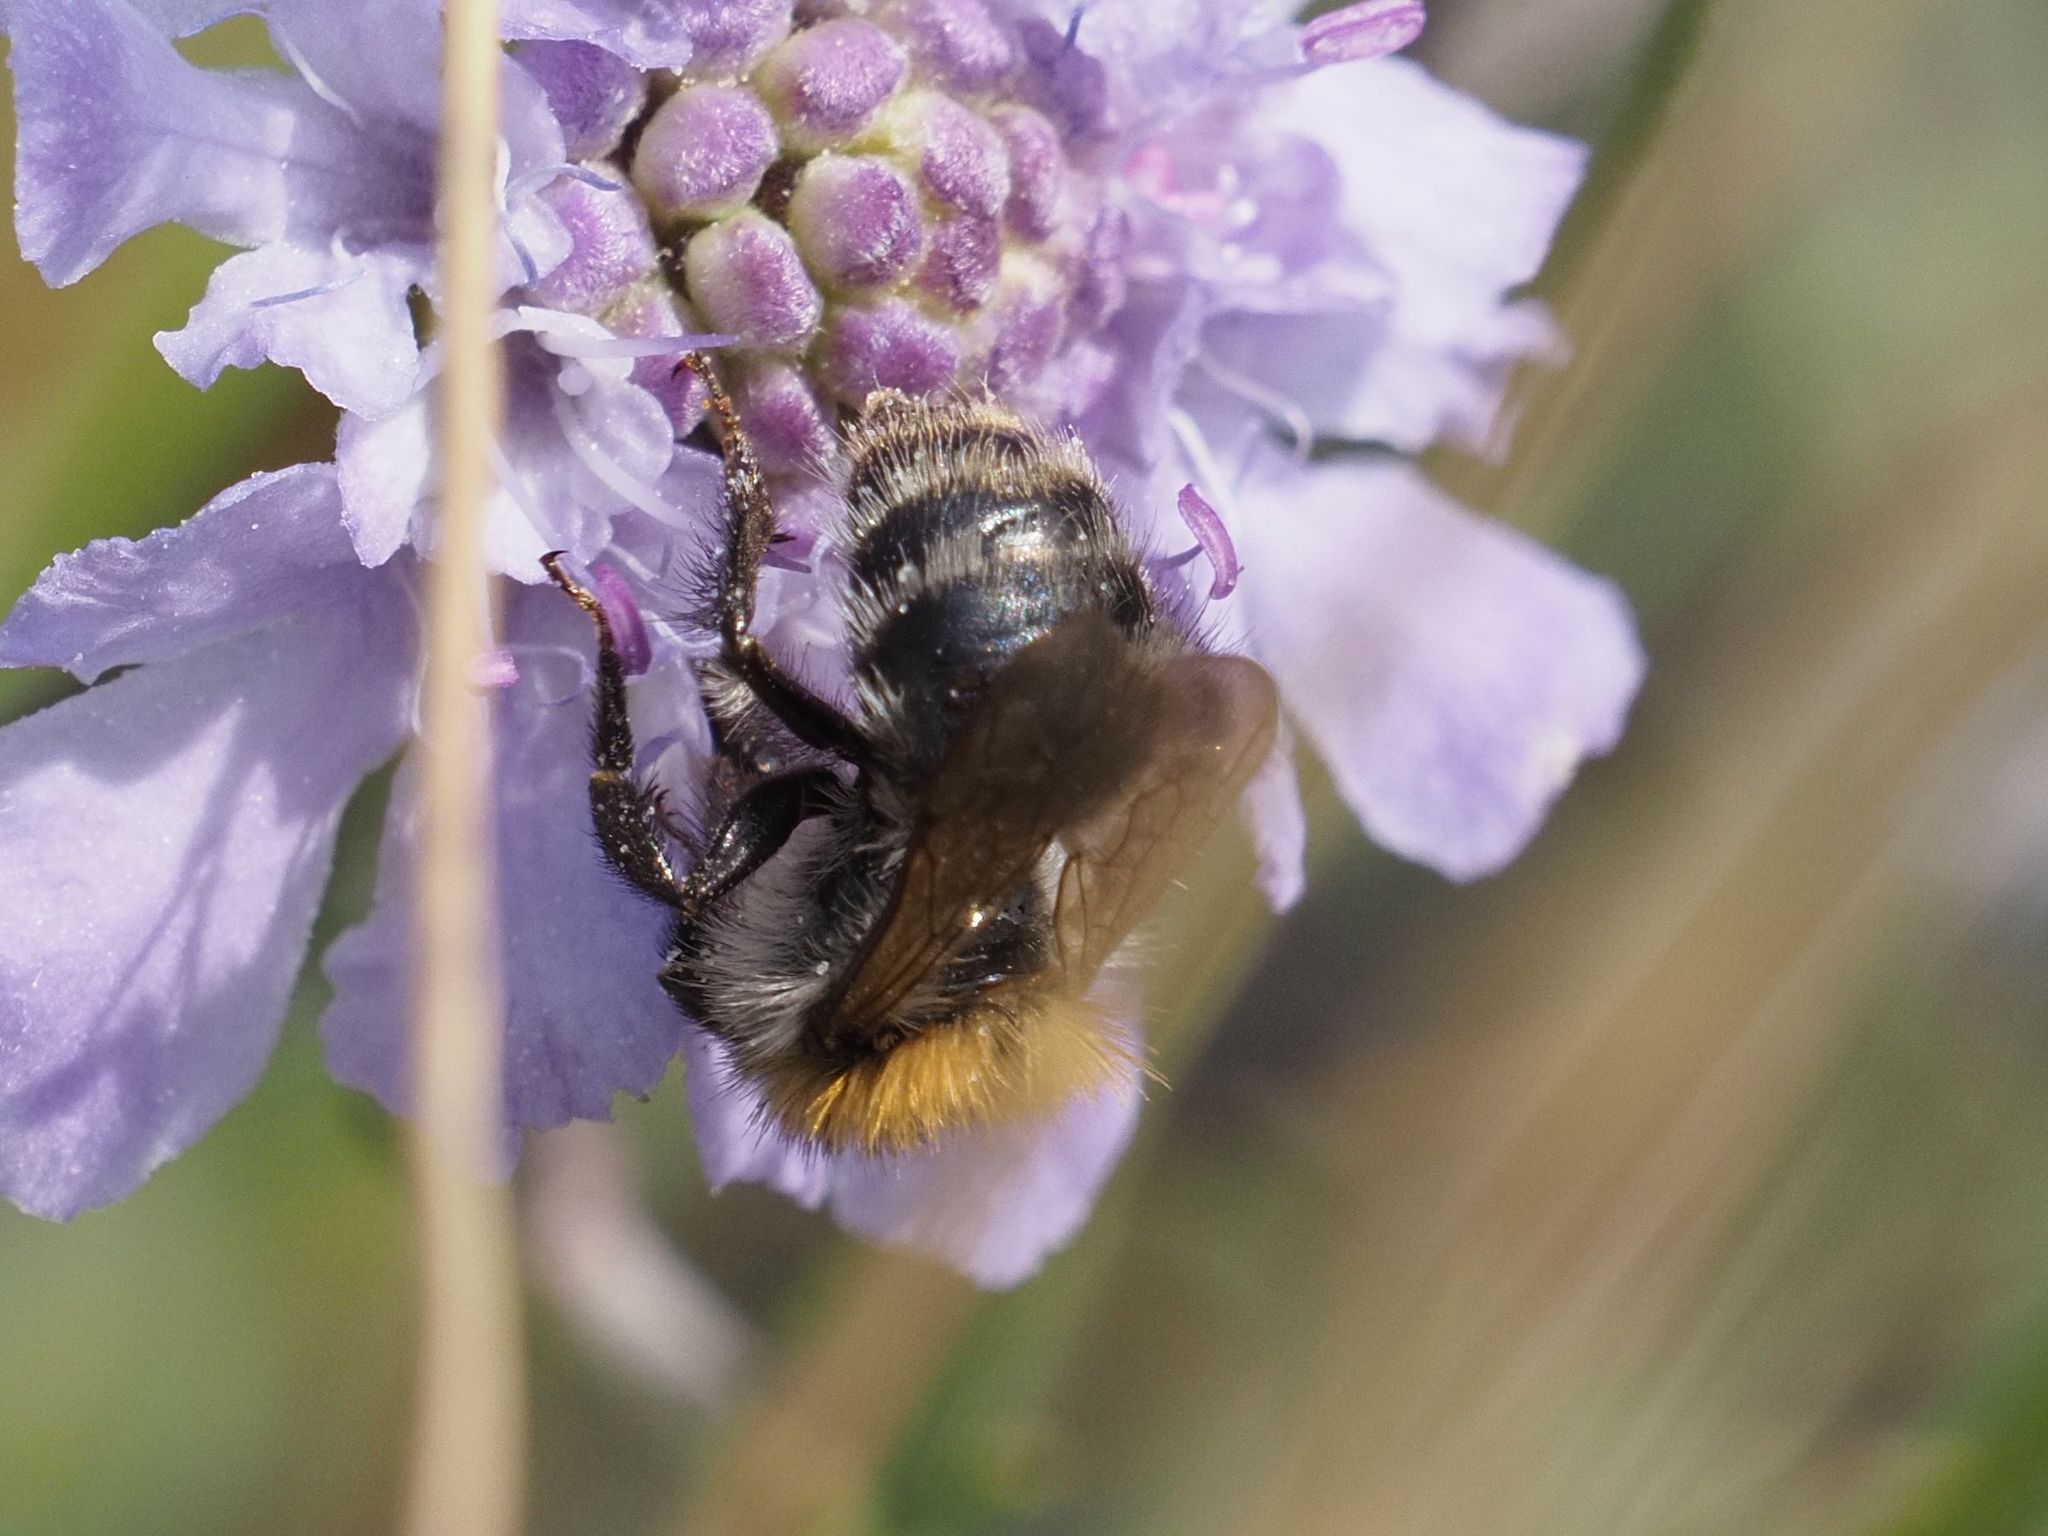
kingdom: Animalia
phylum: Arthropoda
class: Insecta
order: Hymenoptera
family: Apidae
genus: Bombus
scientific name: Bombus pascuorum
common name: Common carder bee
